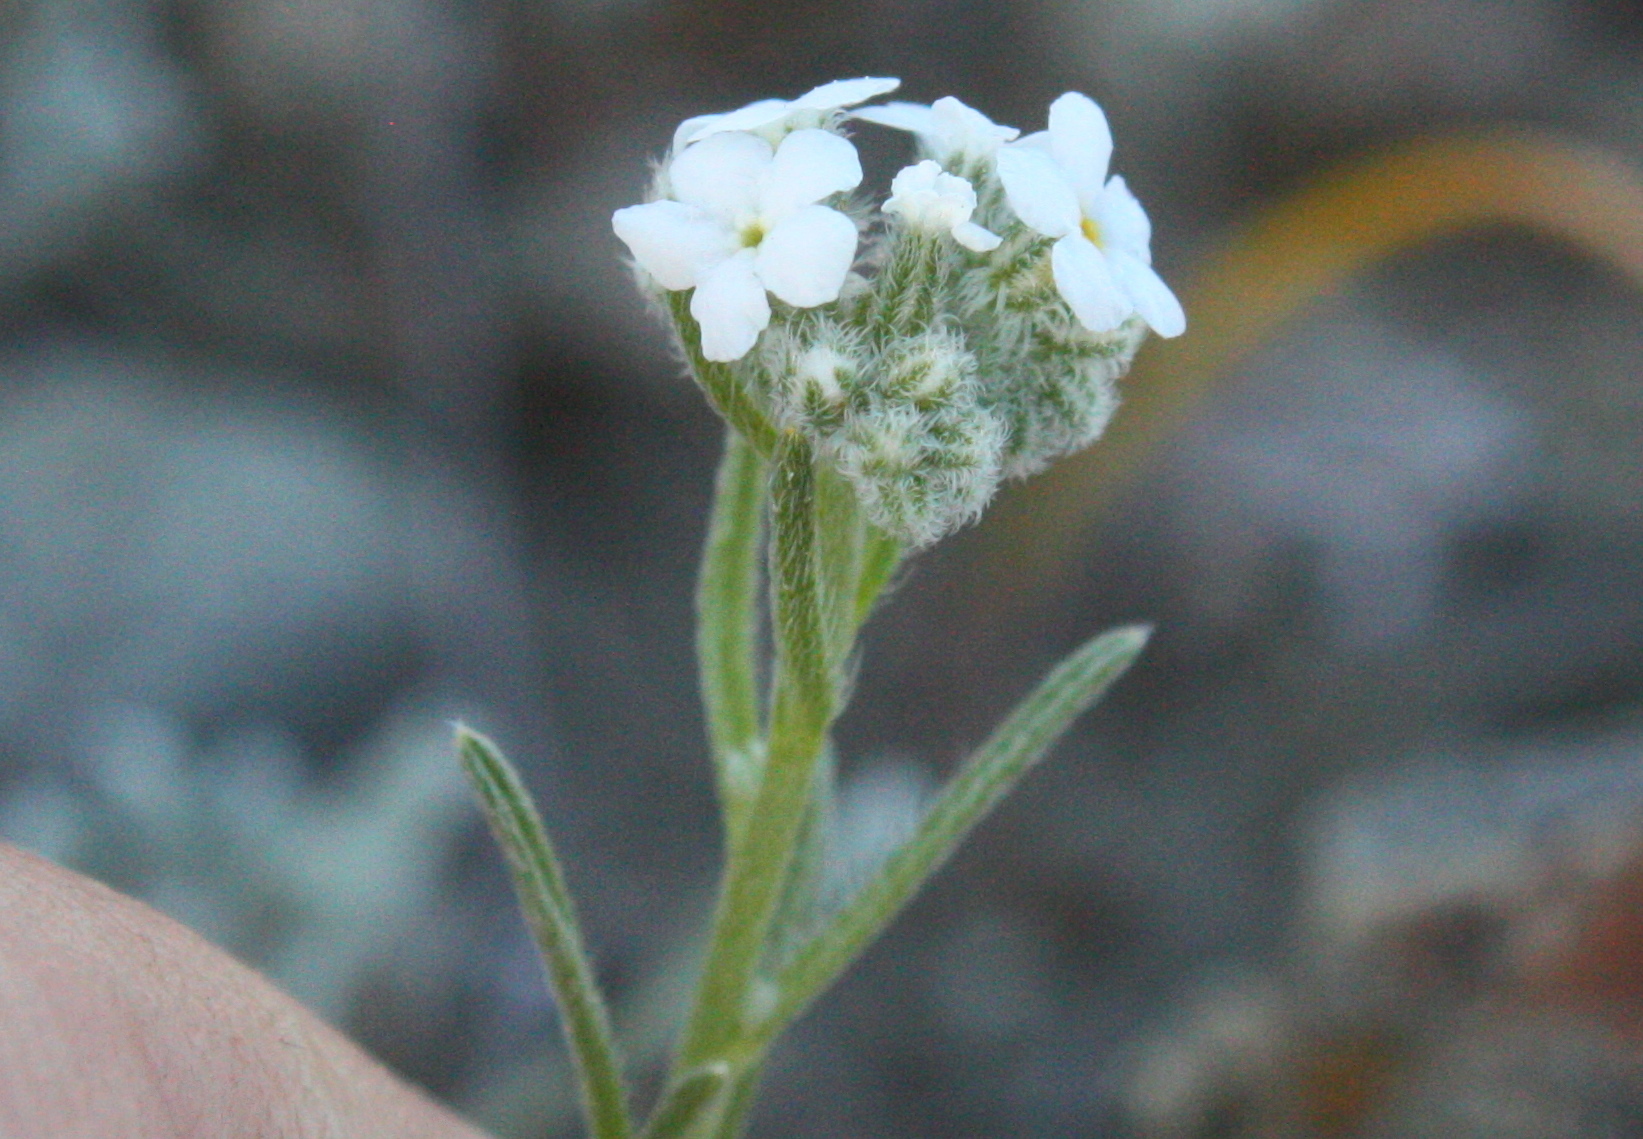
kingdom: Plantae
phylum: Tracheophyta
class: Magnoliopsida
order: Boraginales
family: Boraginaceae
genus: Cryptantha
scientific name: Cryptantha flaccida
